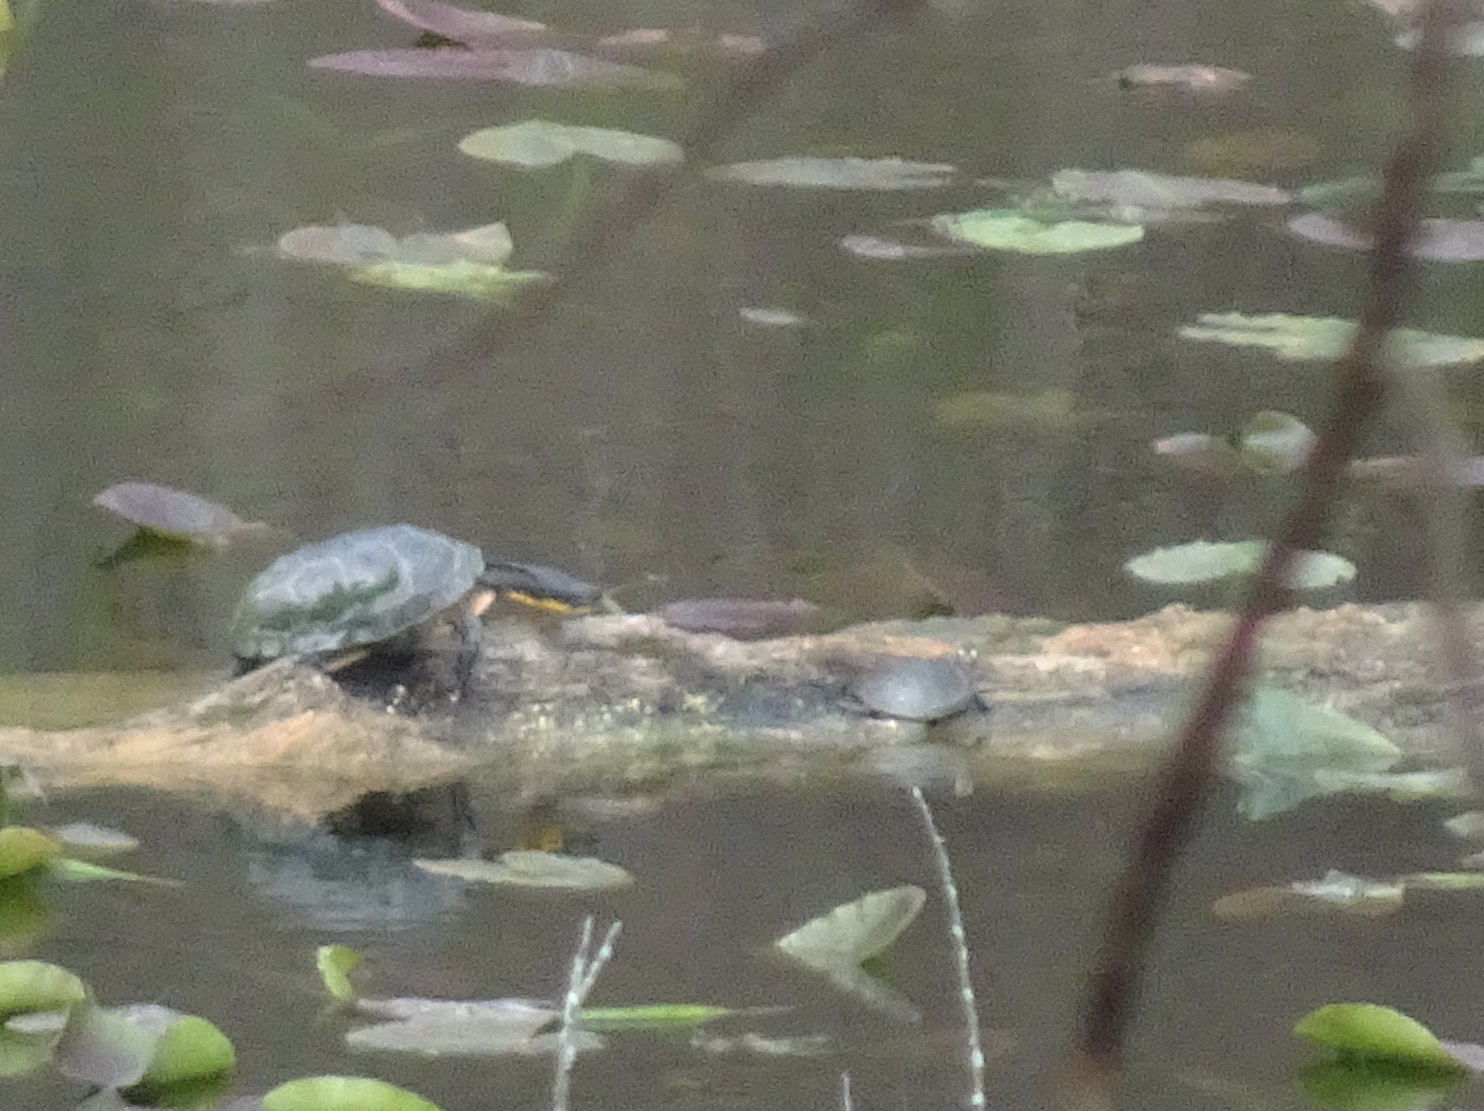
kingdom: Animalia
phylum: Chordata
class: Testudines
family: Emydidae
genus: Emys
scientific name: Emys blandingii
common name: Blanding's turtle
